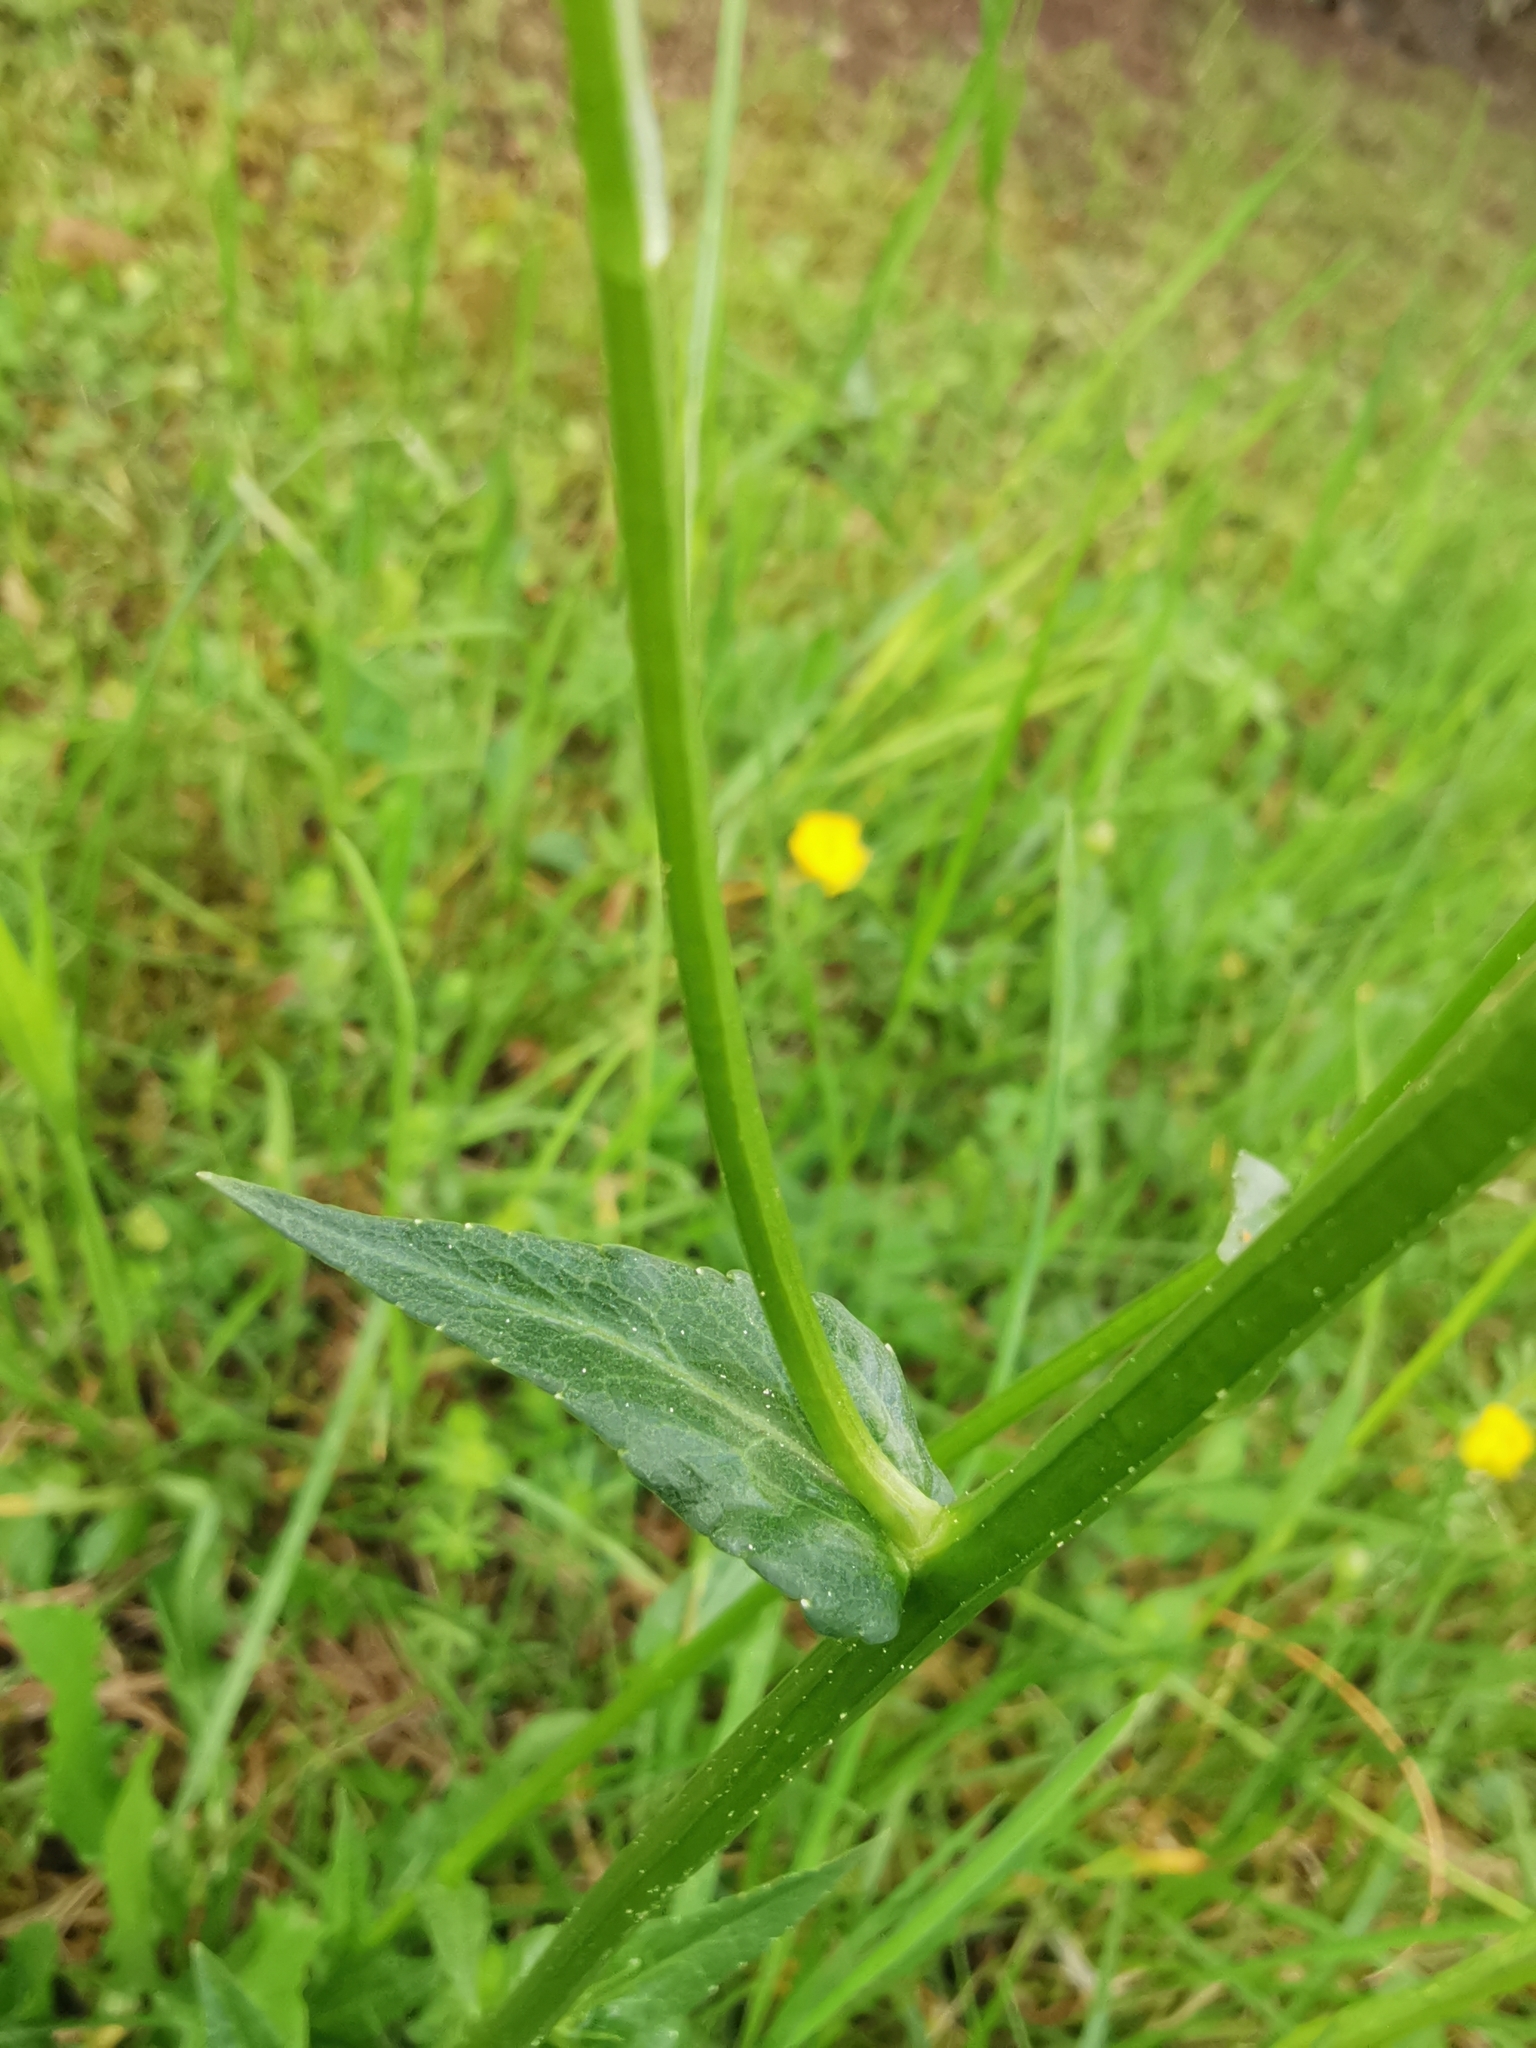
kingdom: Plantae
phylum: Tracheophyta
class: Magnoliopsida
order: Asterales
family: Campanulaceae
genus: Campanula
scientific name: Campanula patula
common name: Spreading bellflower
